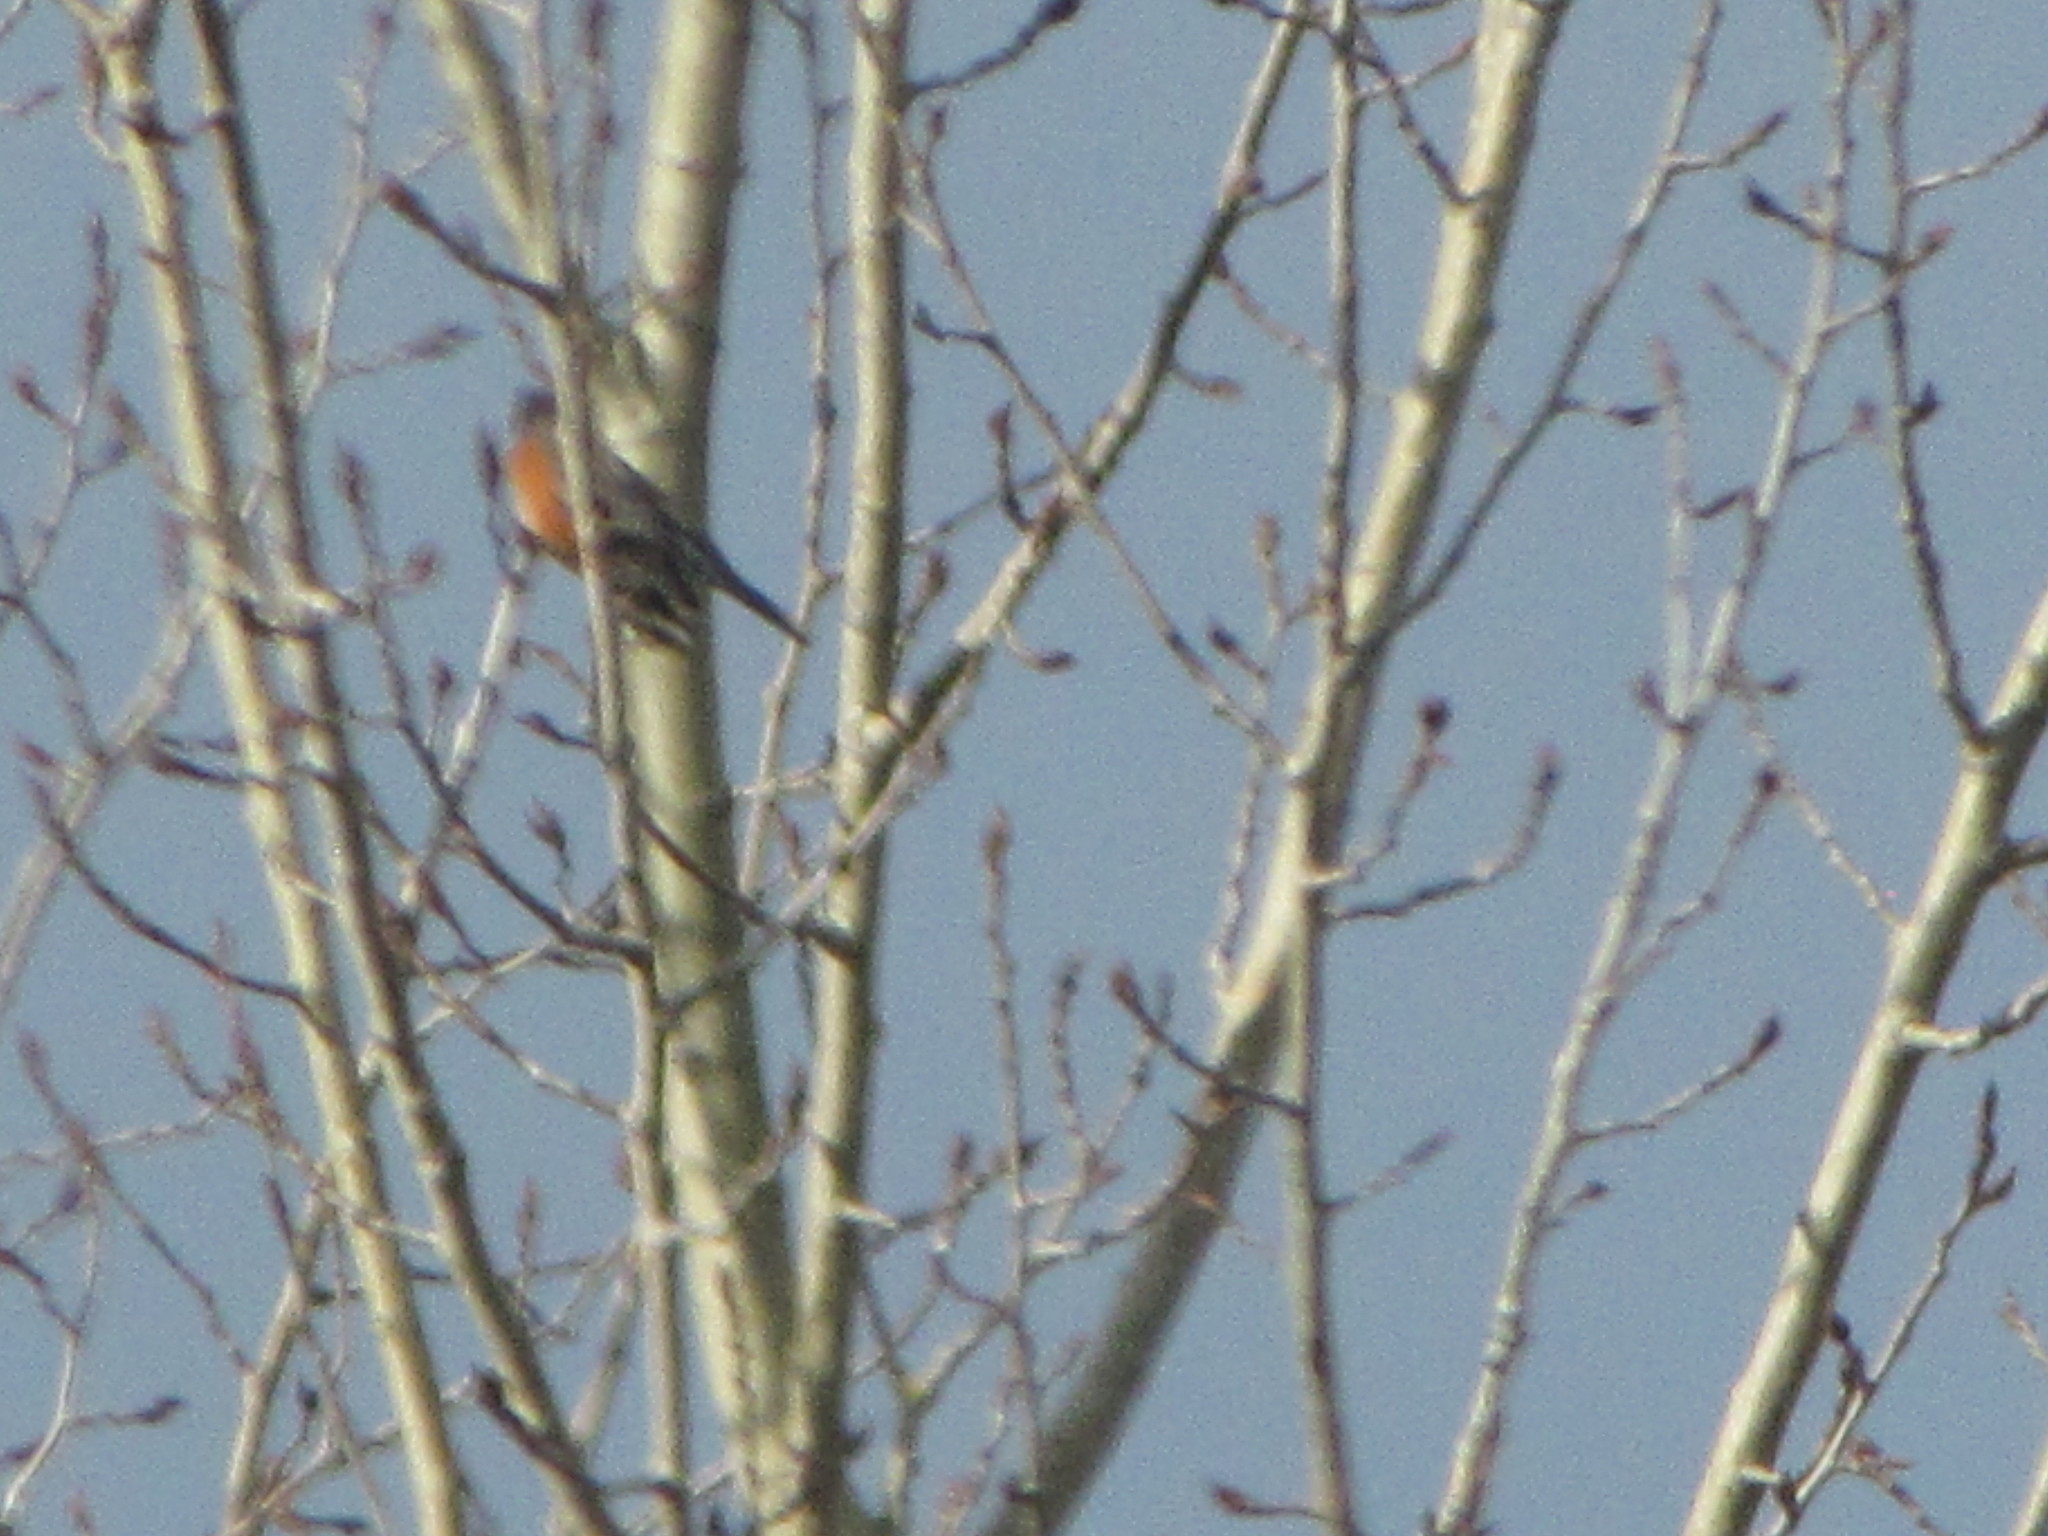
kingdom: Animalia
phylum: Chordata
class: Aves
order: Passeriformes
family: Turdidae
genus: Turdus
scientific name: Turdus migratorius
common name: American robin
